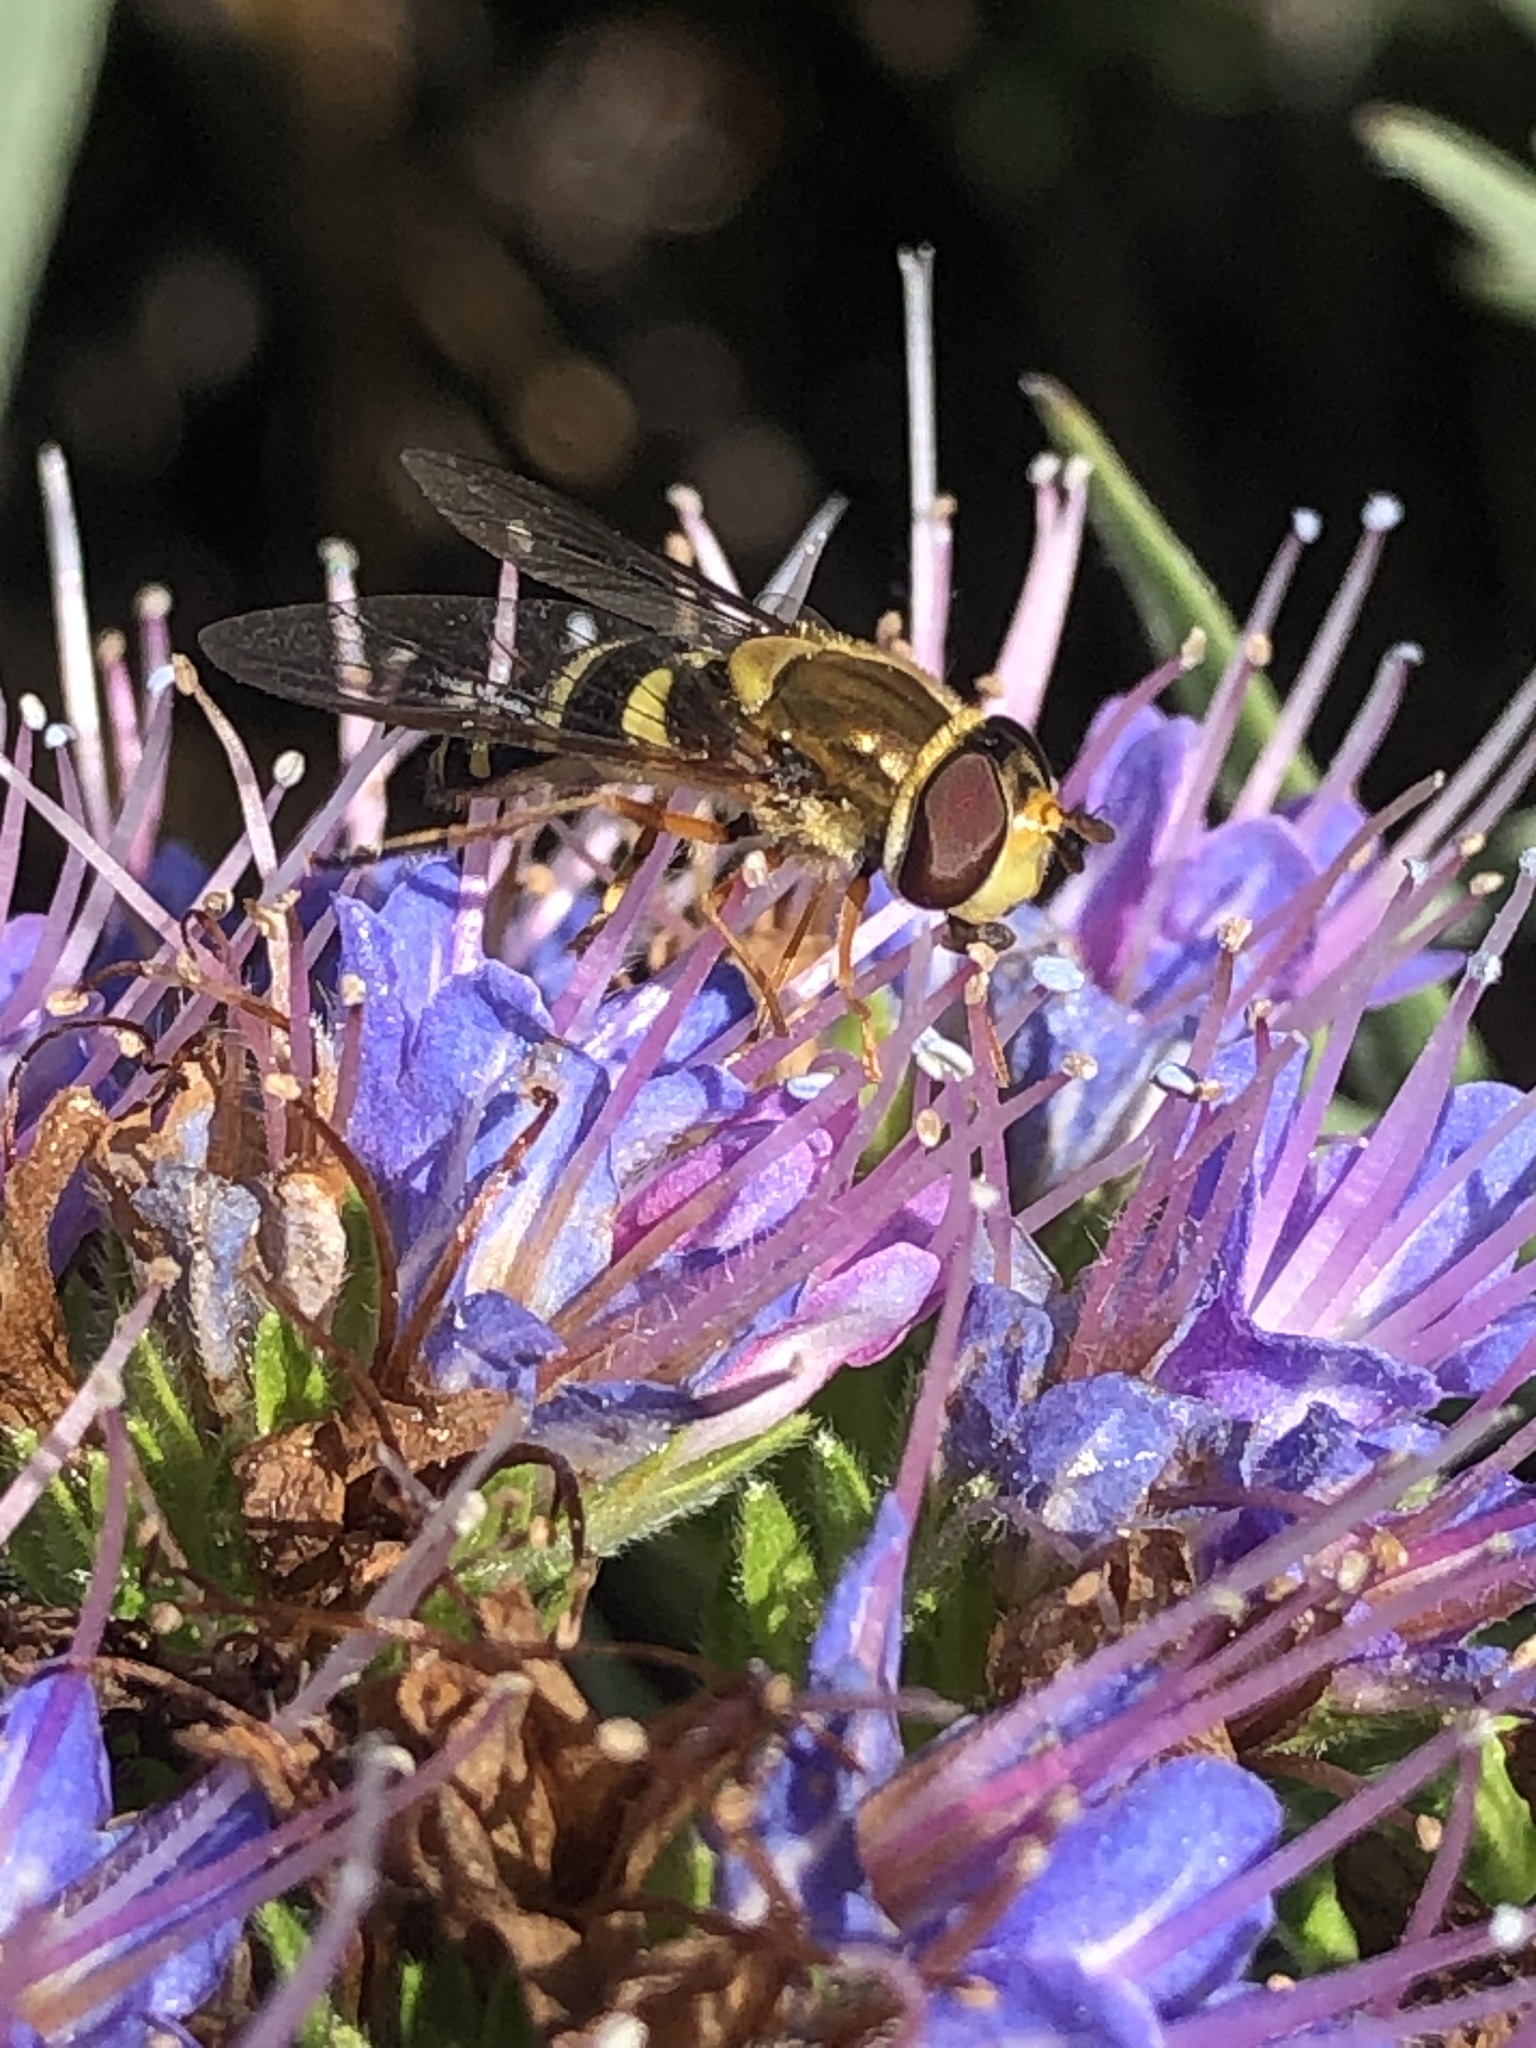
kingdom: Animalia
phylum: Arthropoda
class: Insecta
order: Diptera
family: Syrphidae
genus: Syrphus
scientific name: Syrphus opinator
